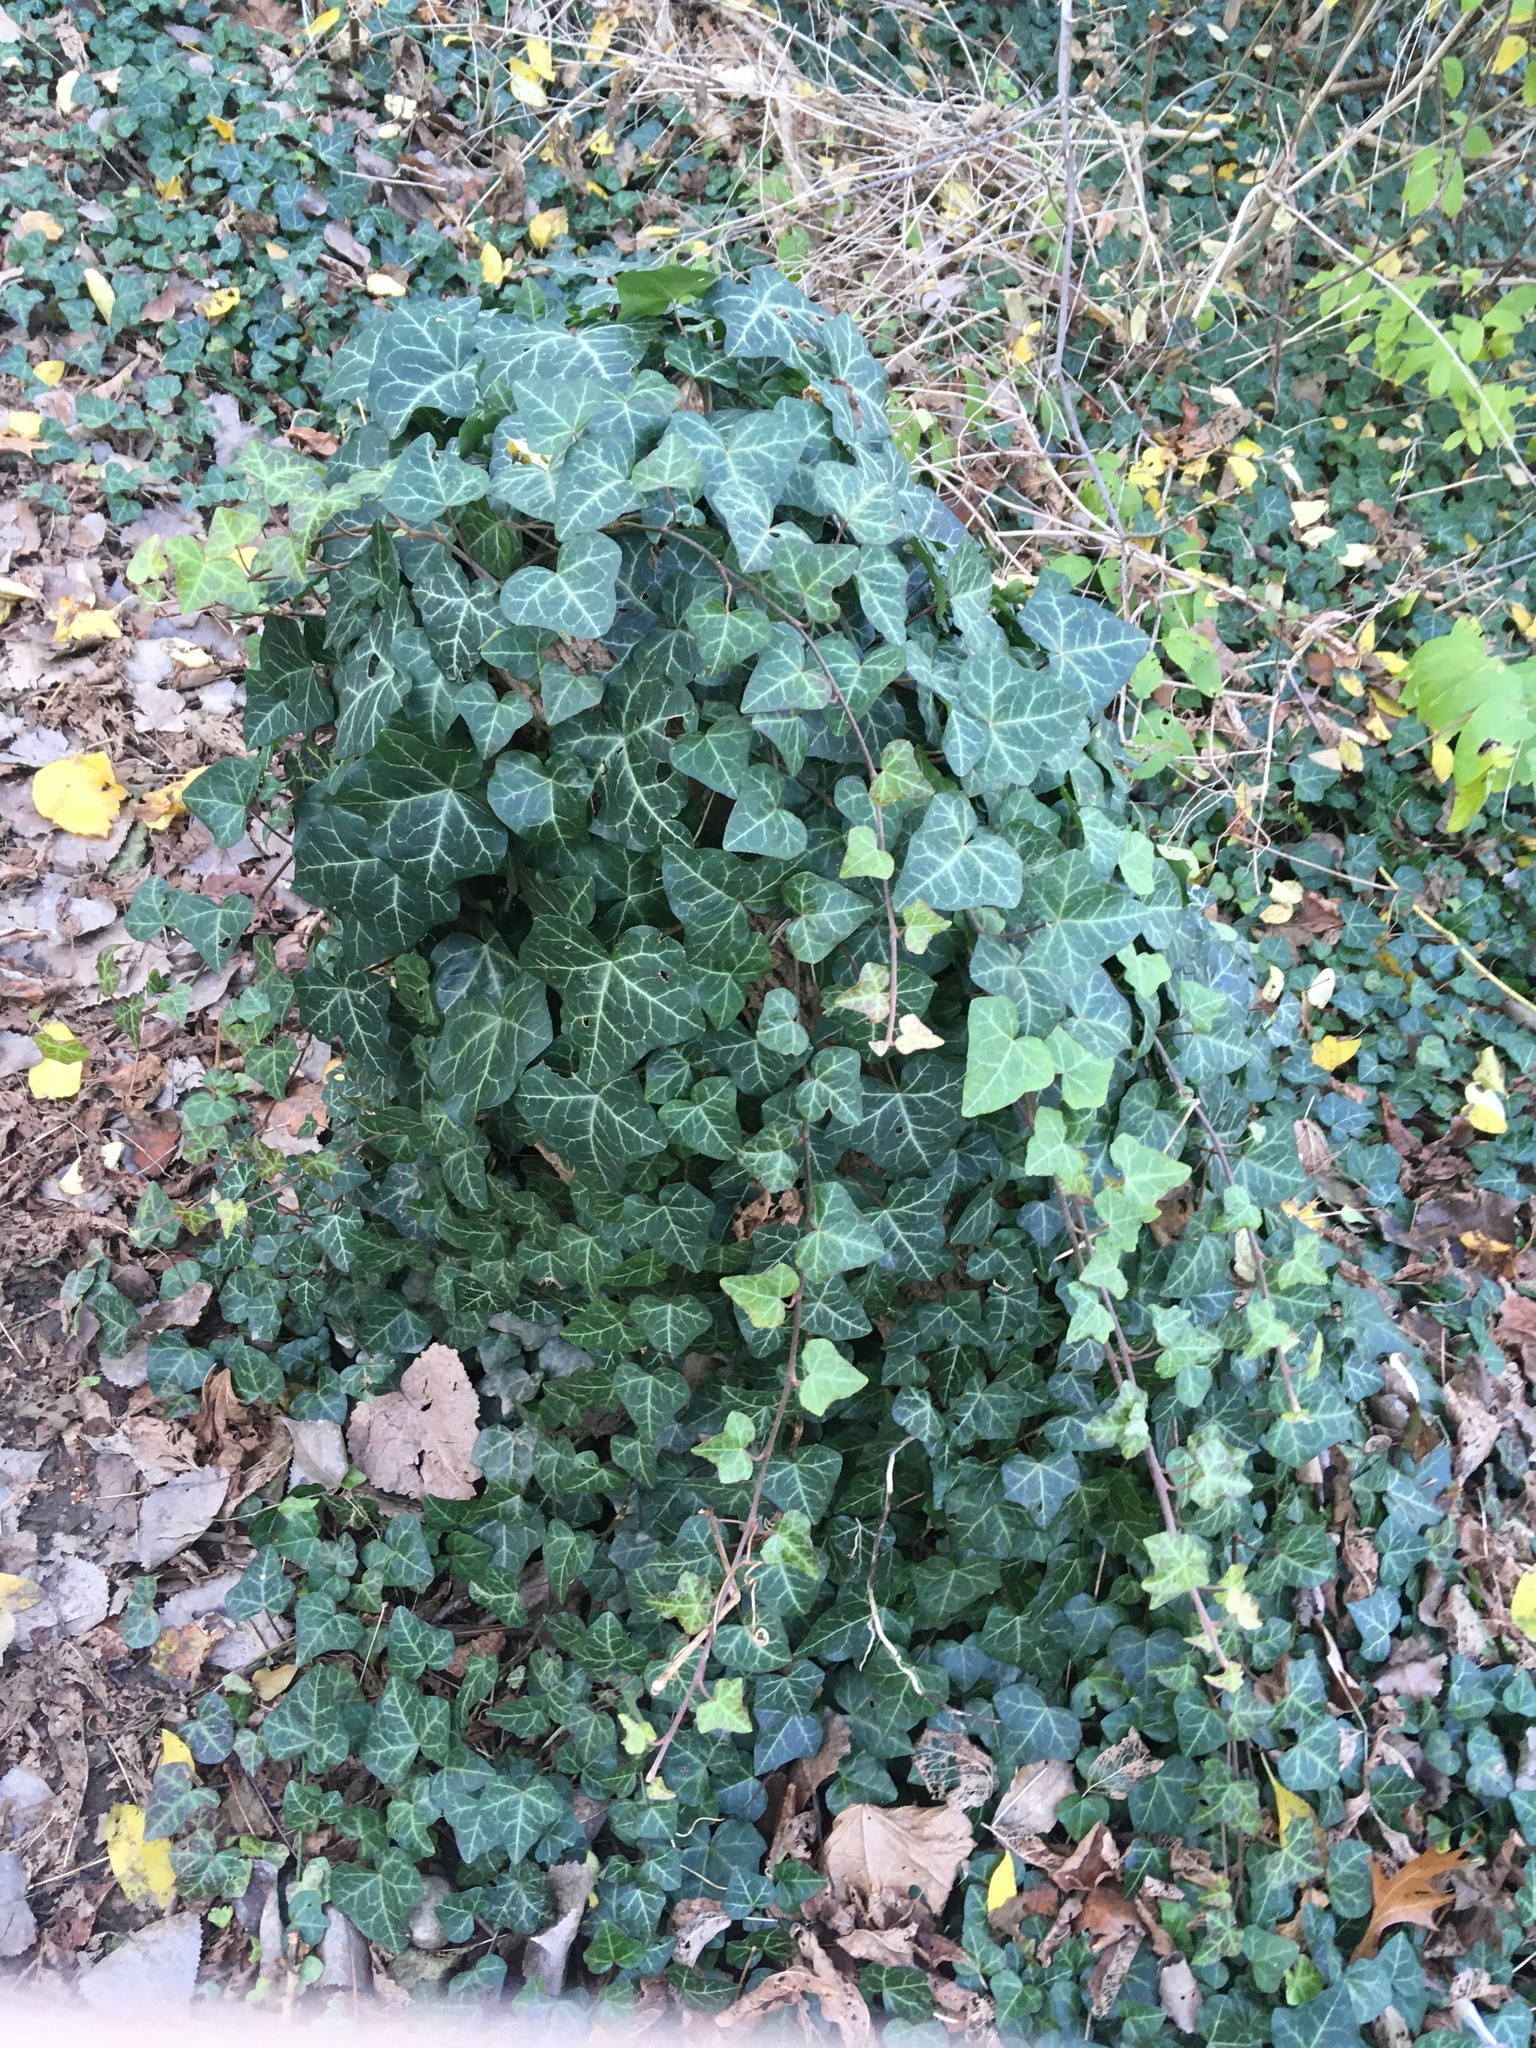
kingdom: Plantae
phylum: Tracheophyta
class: Magnoliopsida
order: Apiales
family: Araliaceae
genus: Hedera
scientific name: Hedera helix
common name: Ivy
